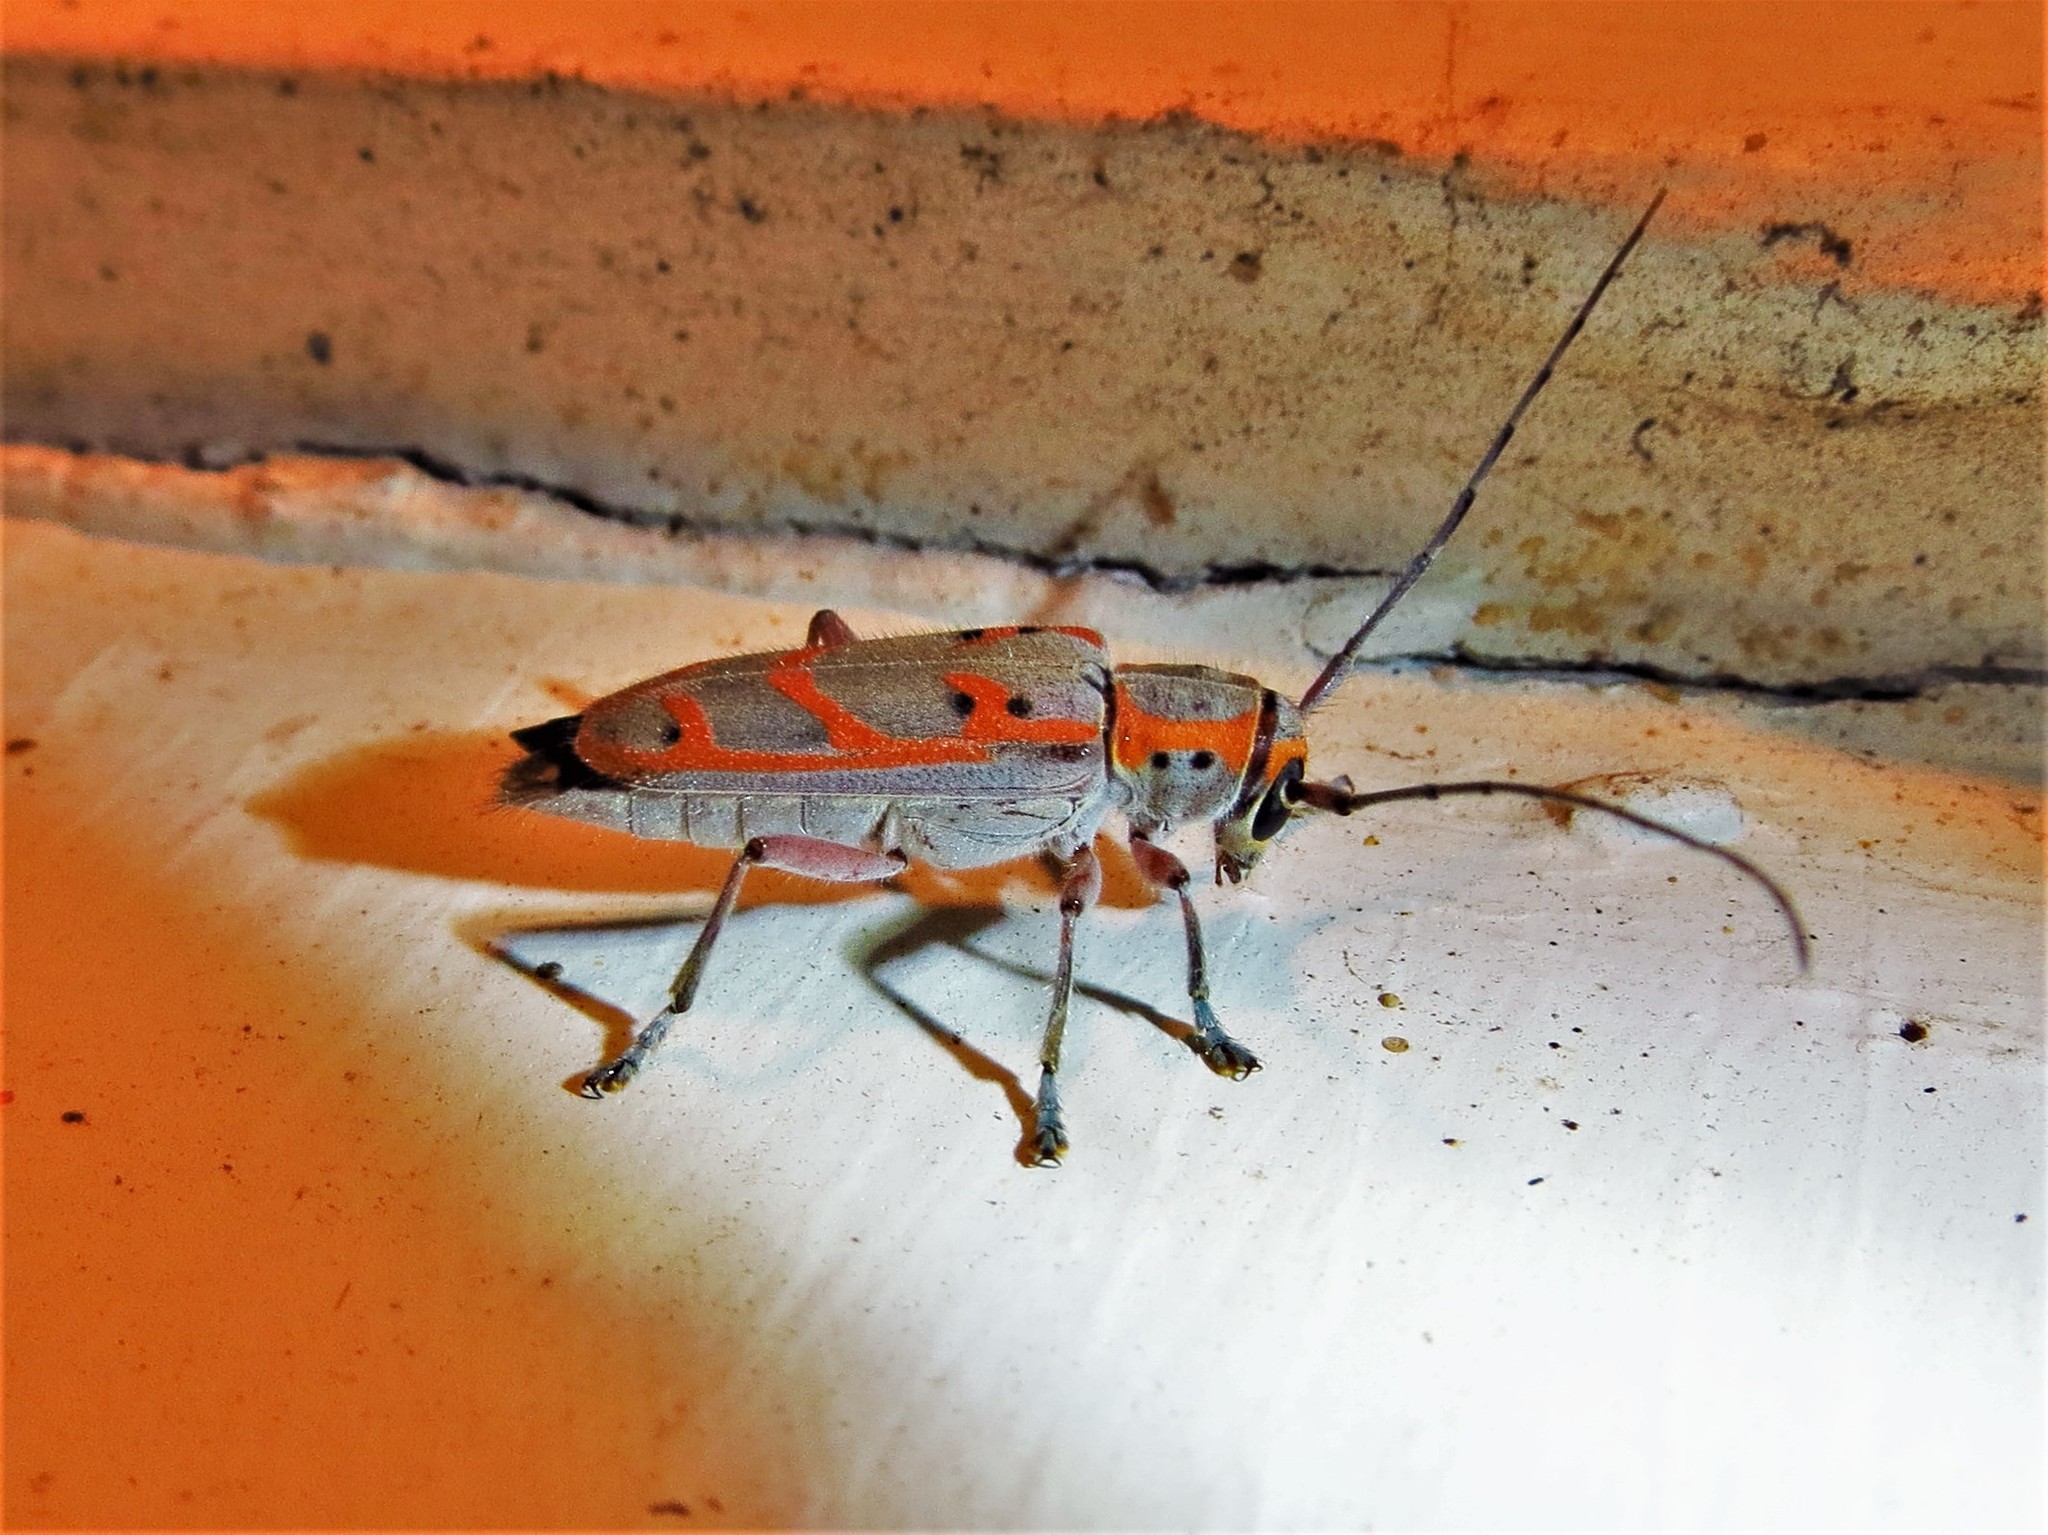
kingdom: Animalia
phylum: Arthropoda
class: Insecta
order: Coleoptera
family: Cerambycidae
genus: Saperda
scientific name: Saperda tridentata
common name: Elm borer
